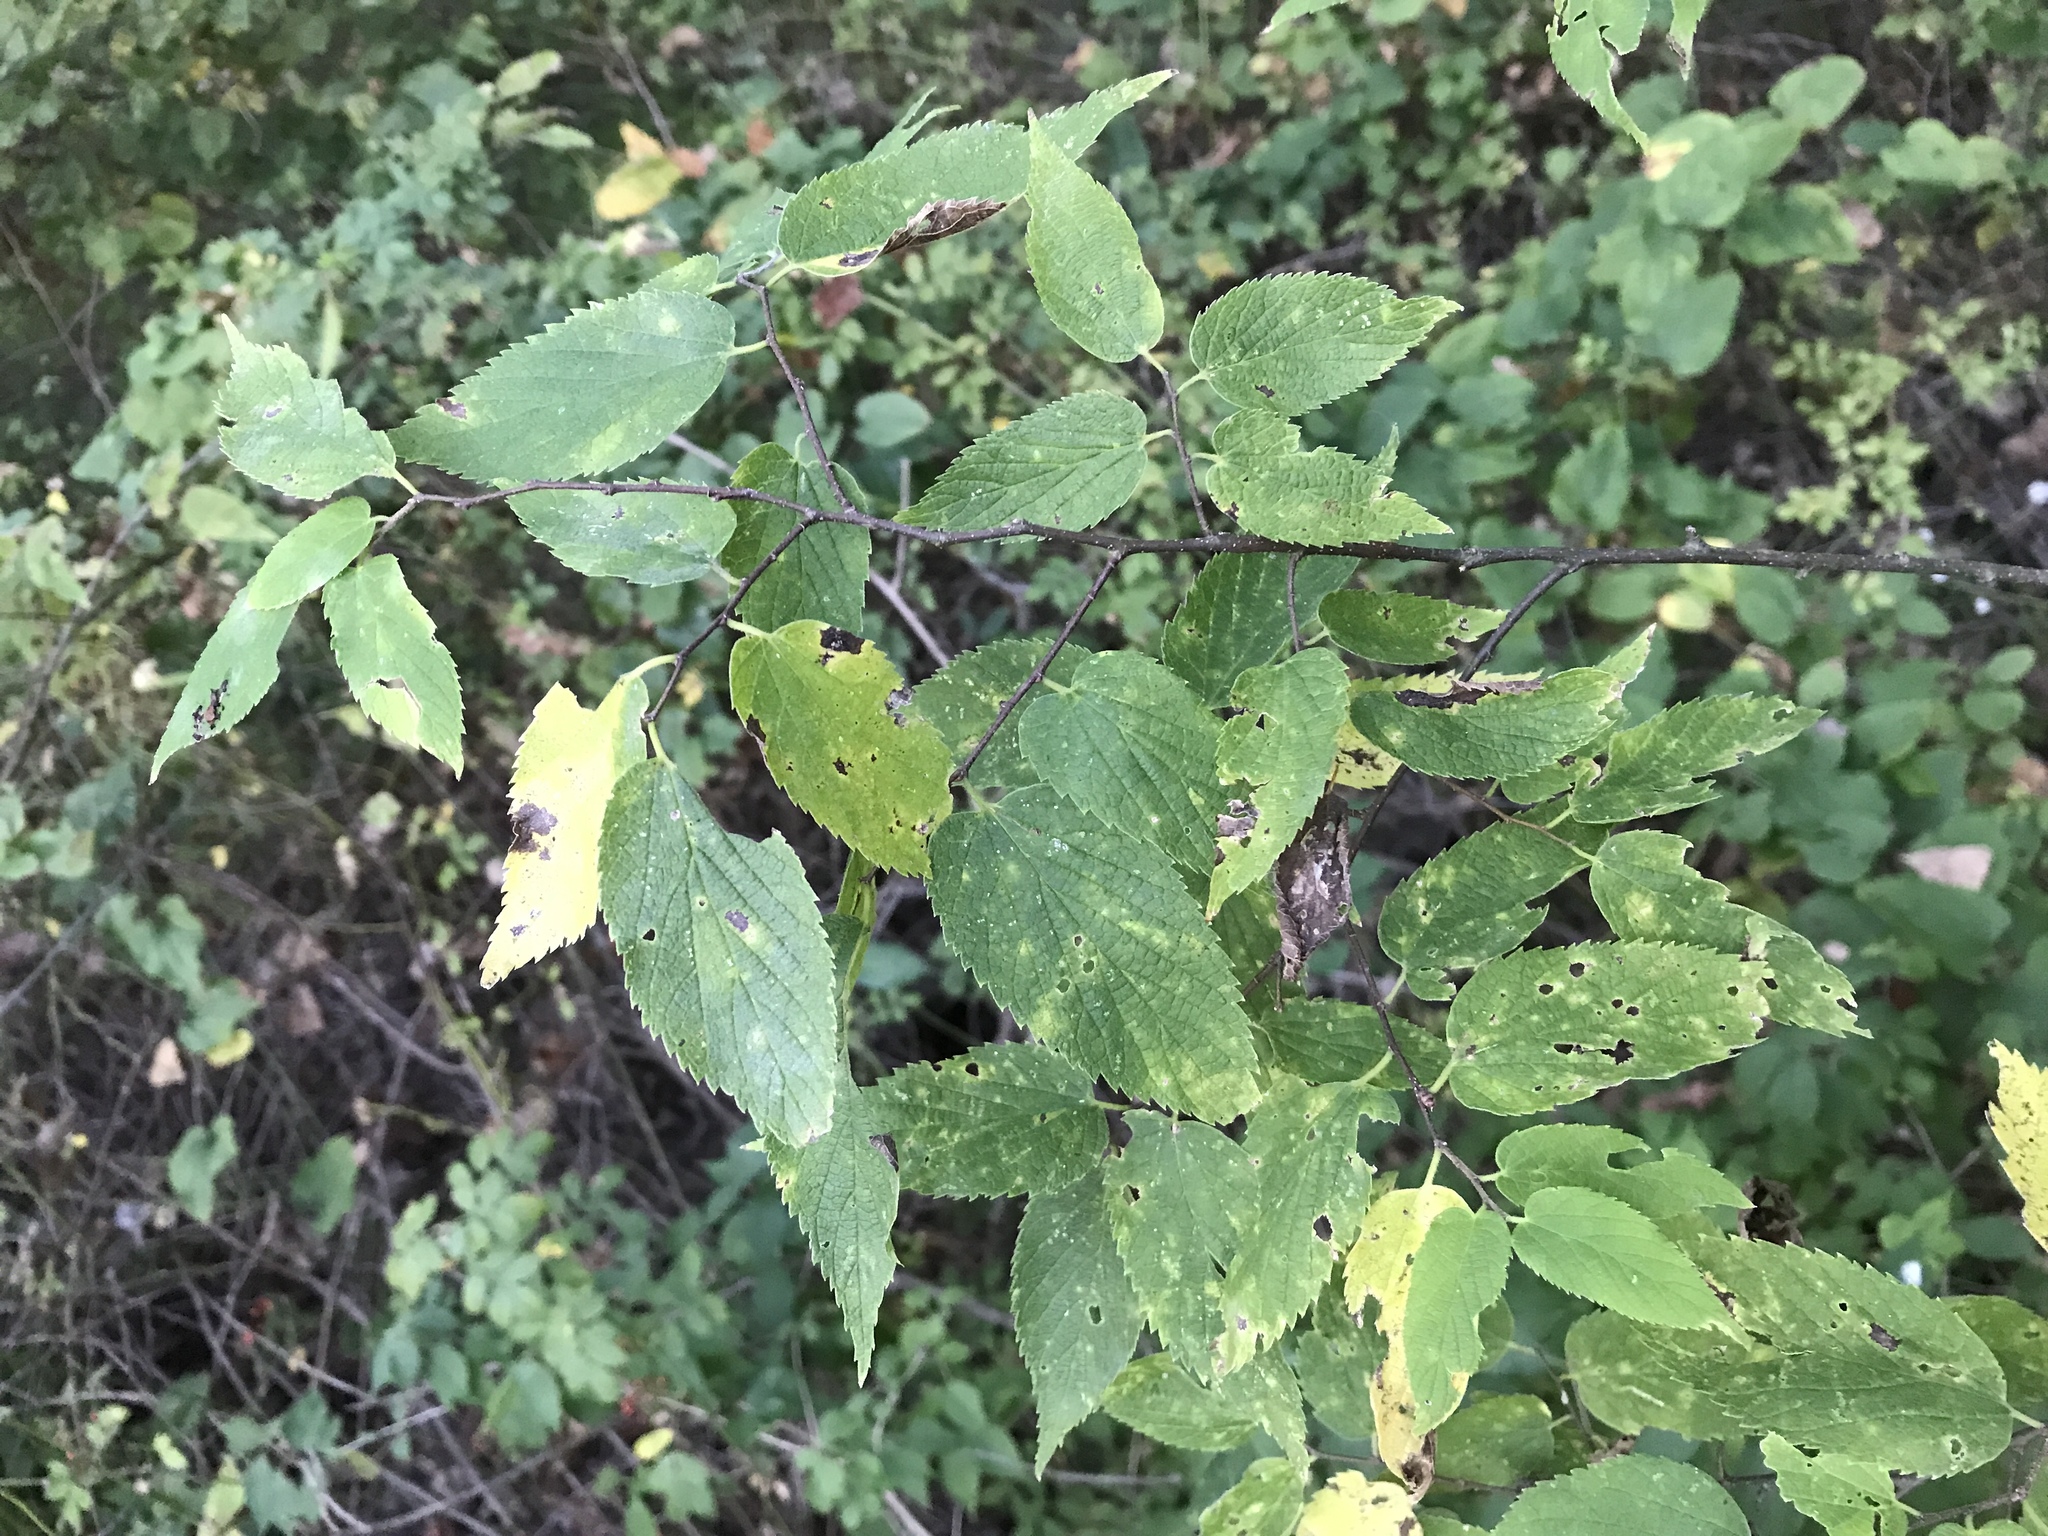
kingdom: Plantae
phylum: Tracheophyta
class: Magnoliopsida
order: Rosales
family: Cannabaceae
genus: Celtis
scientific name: Celtis occidentalis
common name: Common hackberry
